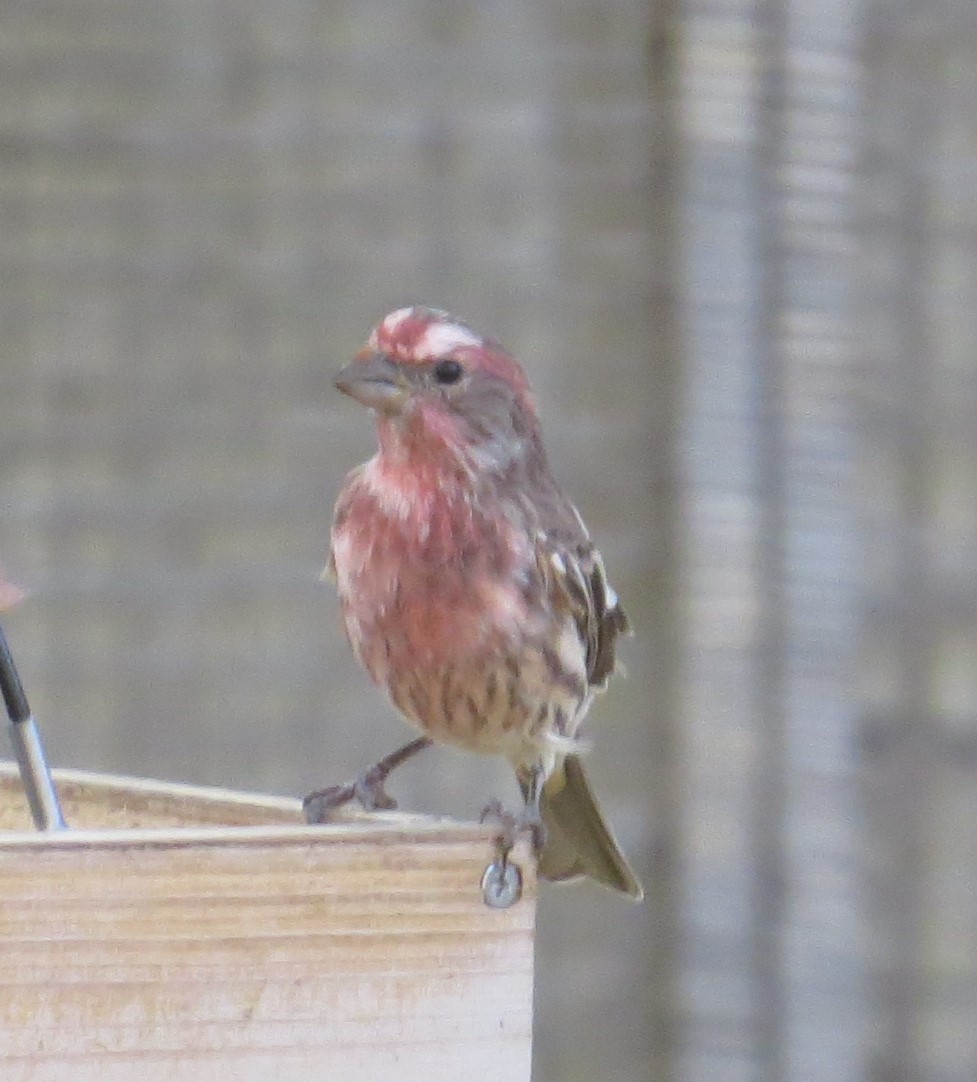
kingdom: Animalia
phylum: Chordata
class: Aves
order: Passeriformes
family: Fringillidae
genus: Haemorhous
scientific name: Haemorhous mexicanus
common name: House finch
